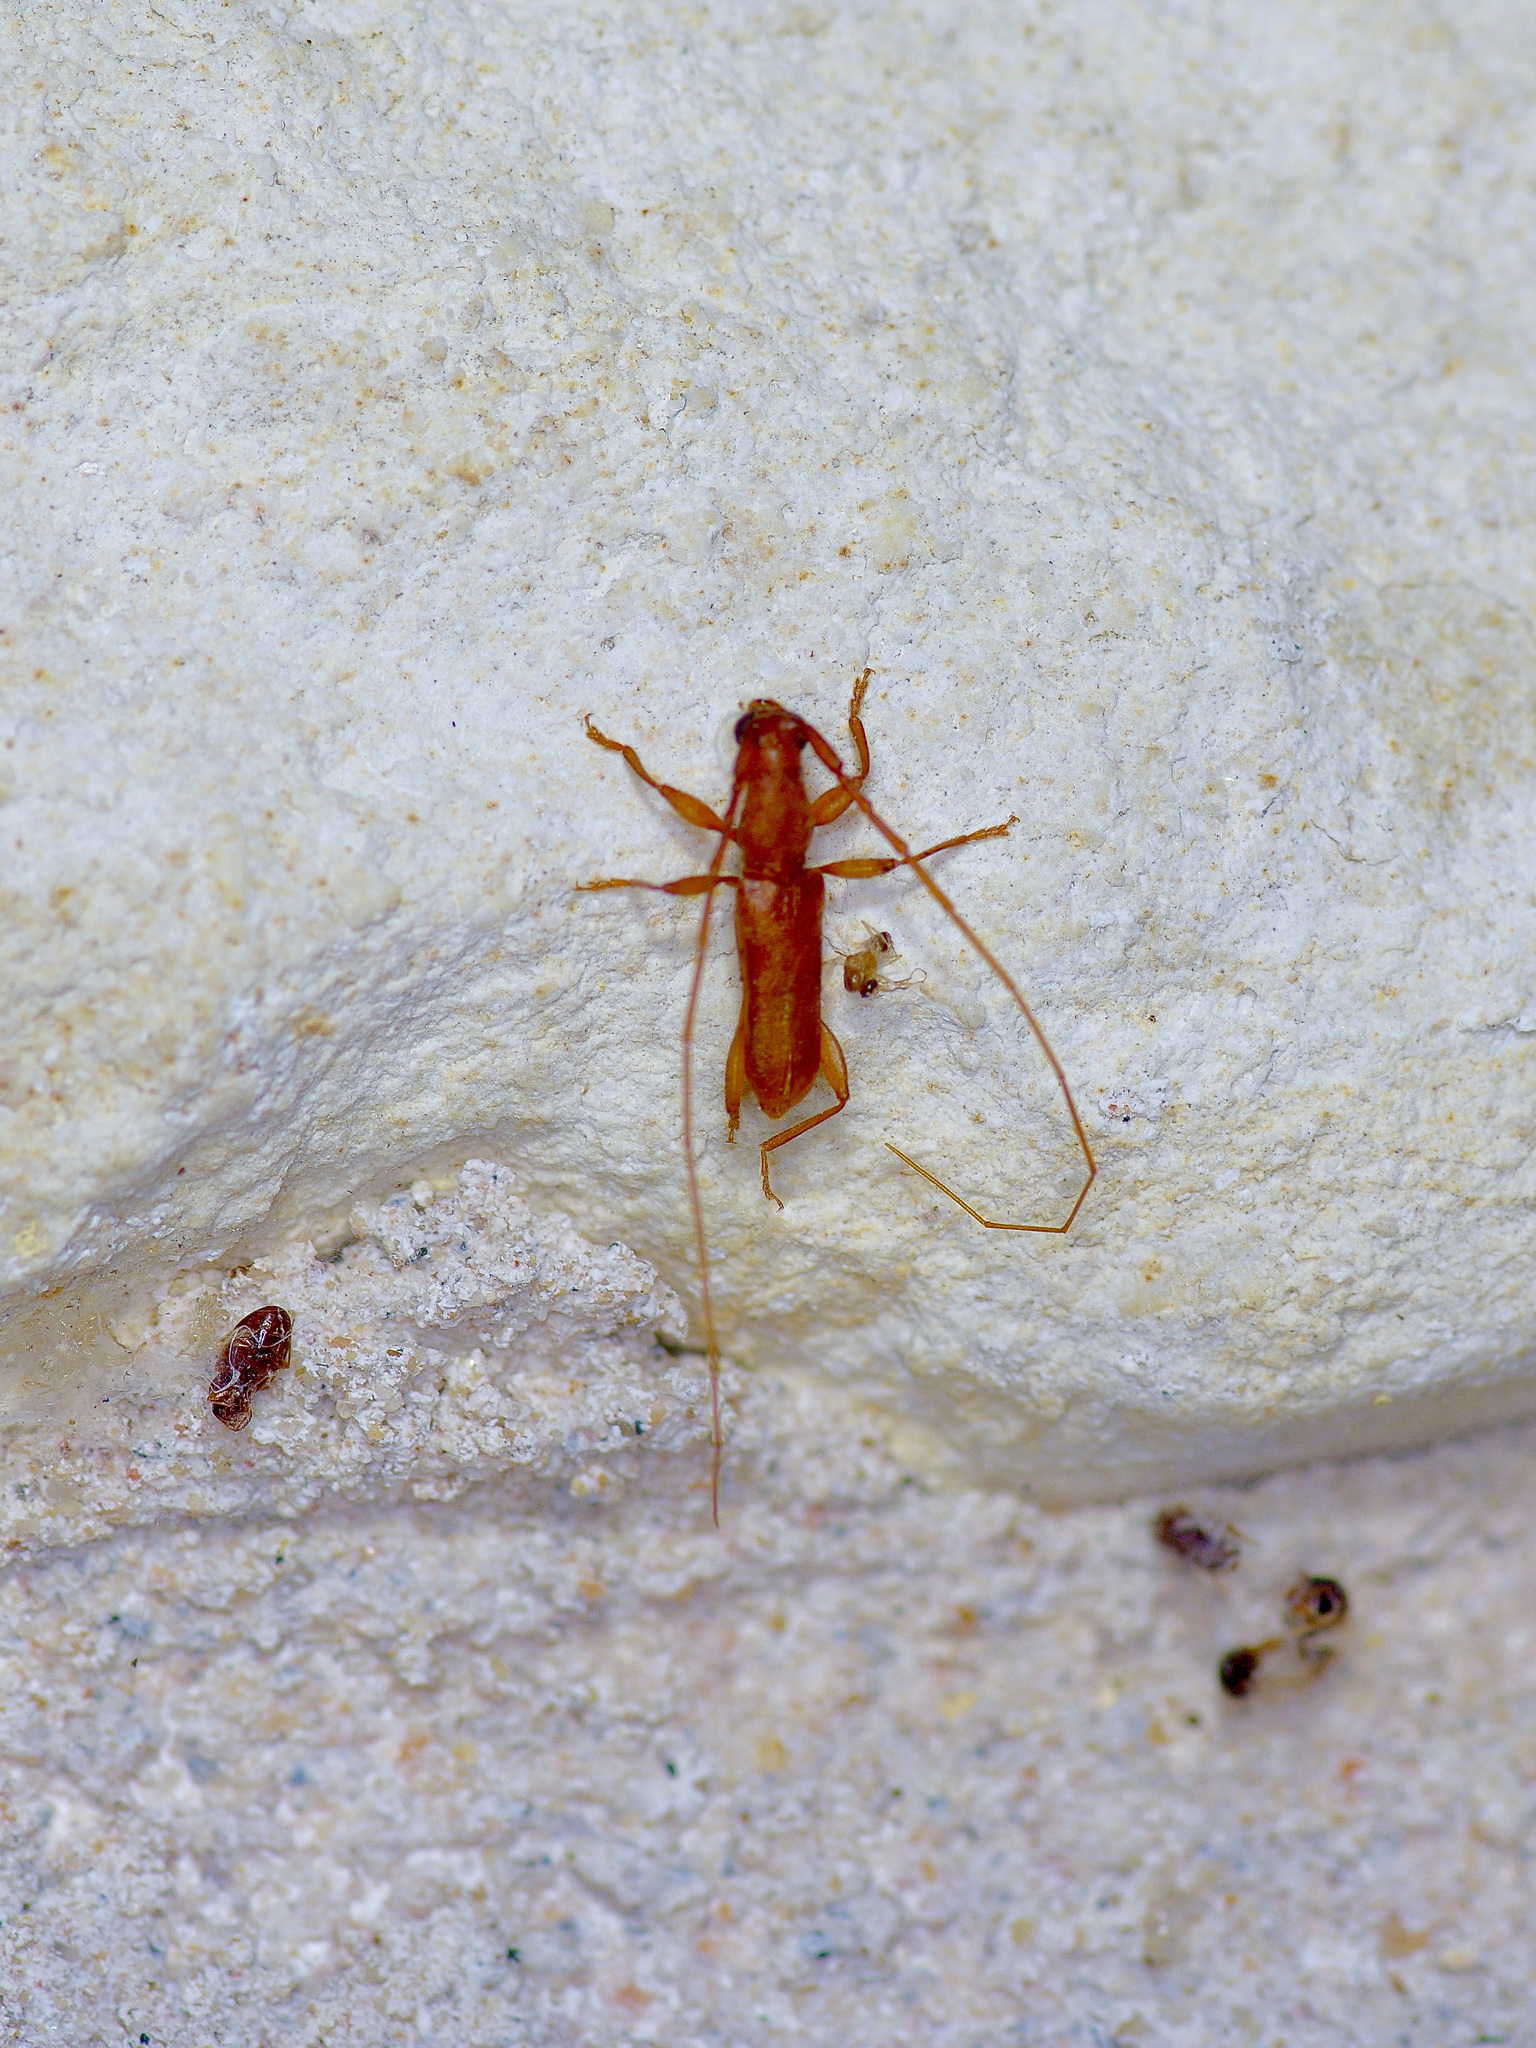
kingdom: Animalia
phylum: Arthropoda
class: Insecta
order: Coleoptera
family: Cerambycidae
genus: Hypexilis
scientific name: Hypexilis pallida
